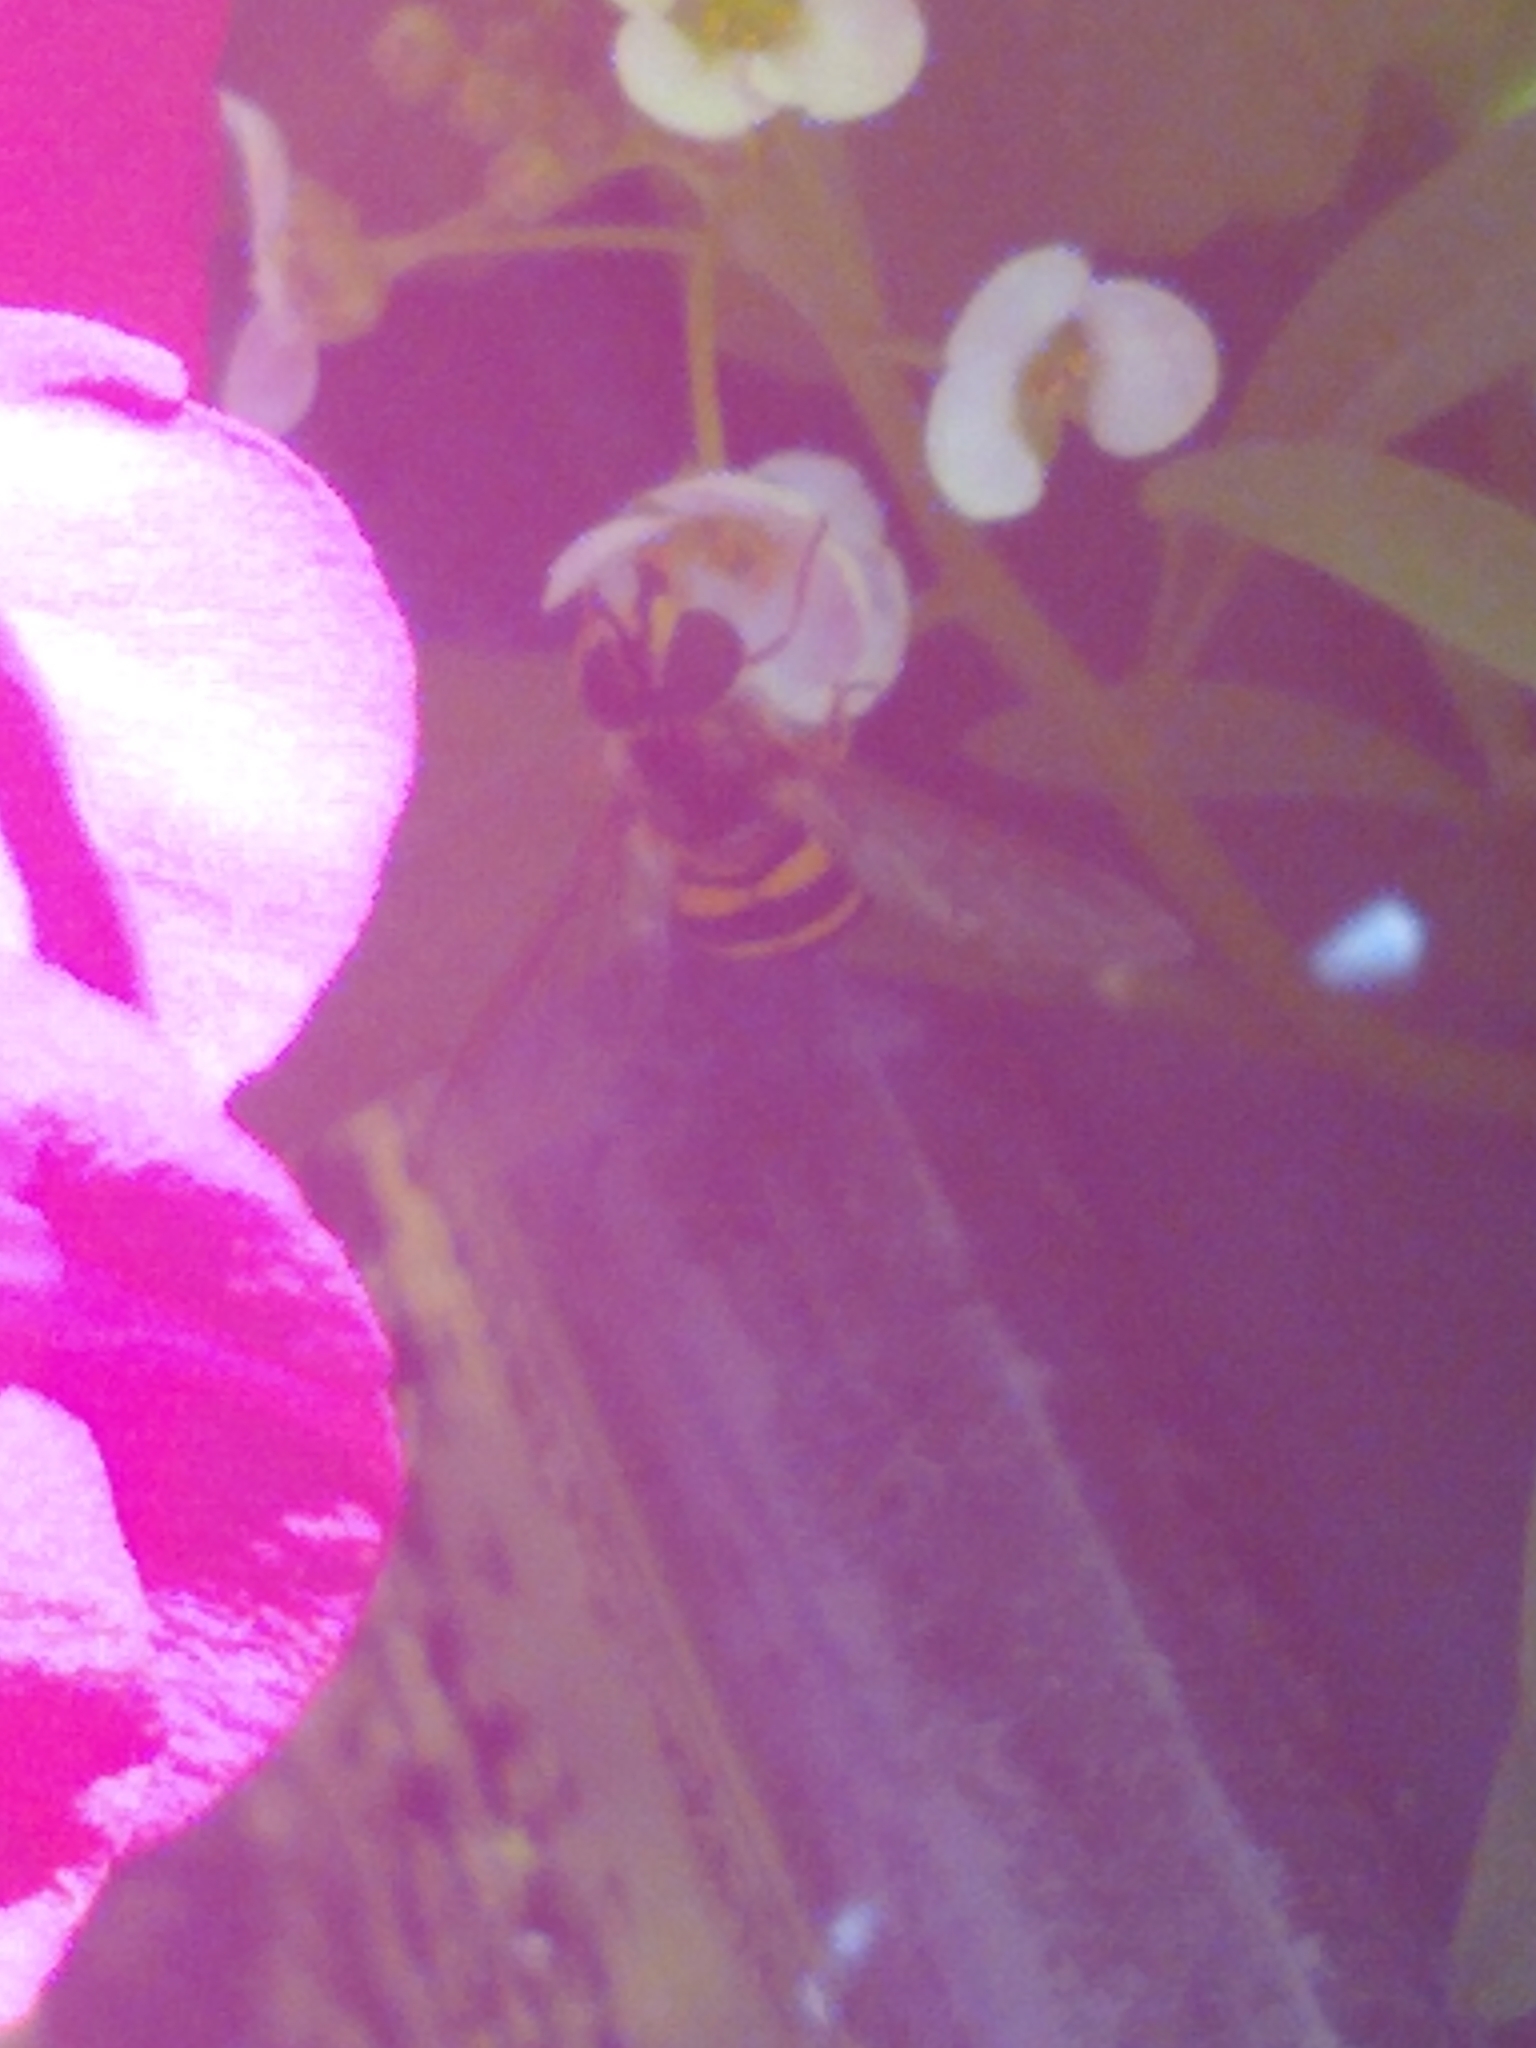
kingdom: Animalia
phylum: Arthropoda
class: Insecta
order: Diptera
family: Syrphidae
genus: Eupeodes
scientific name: Eupeodes
